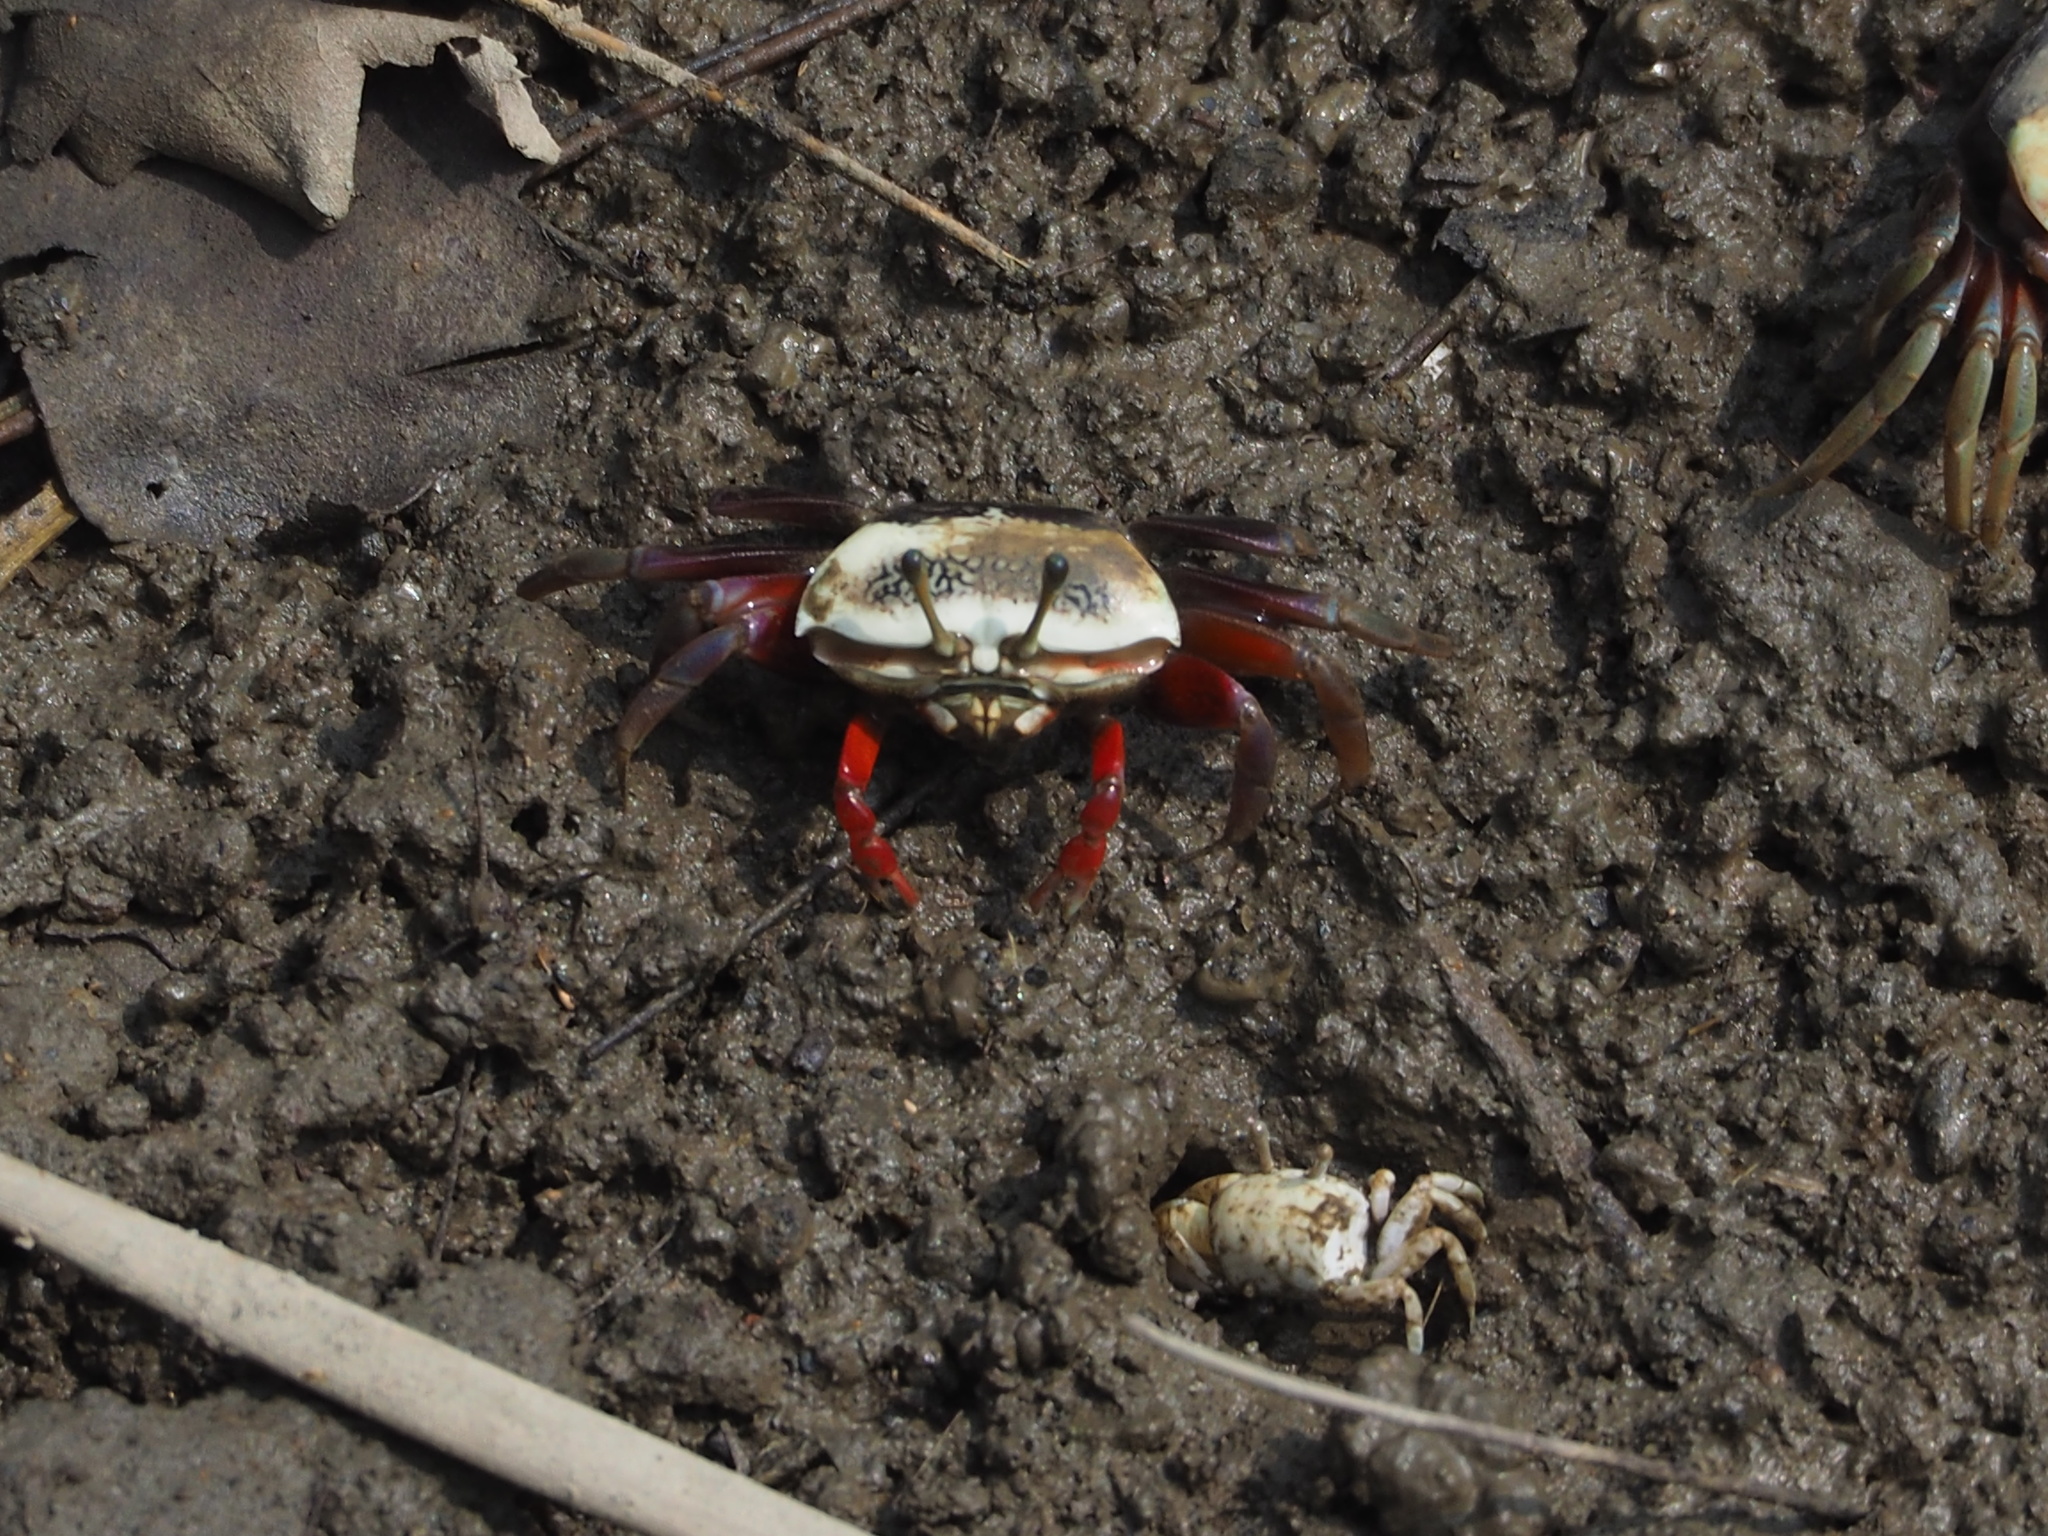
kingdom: Animalia
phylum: Arthropoda
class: Malacostraca
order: Decapoda
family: Ocypodidae
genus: Tubuca
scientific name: Tubuca arcuata
